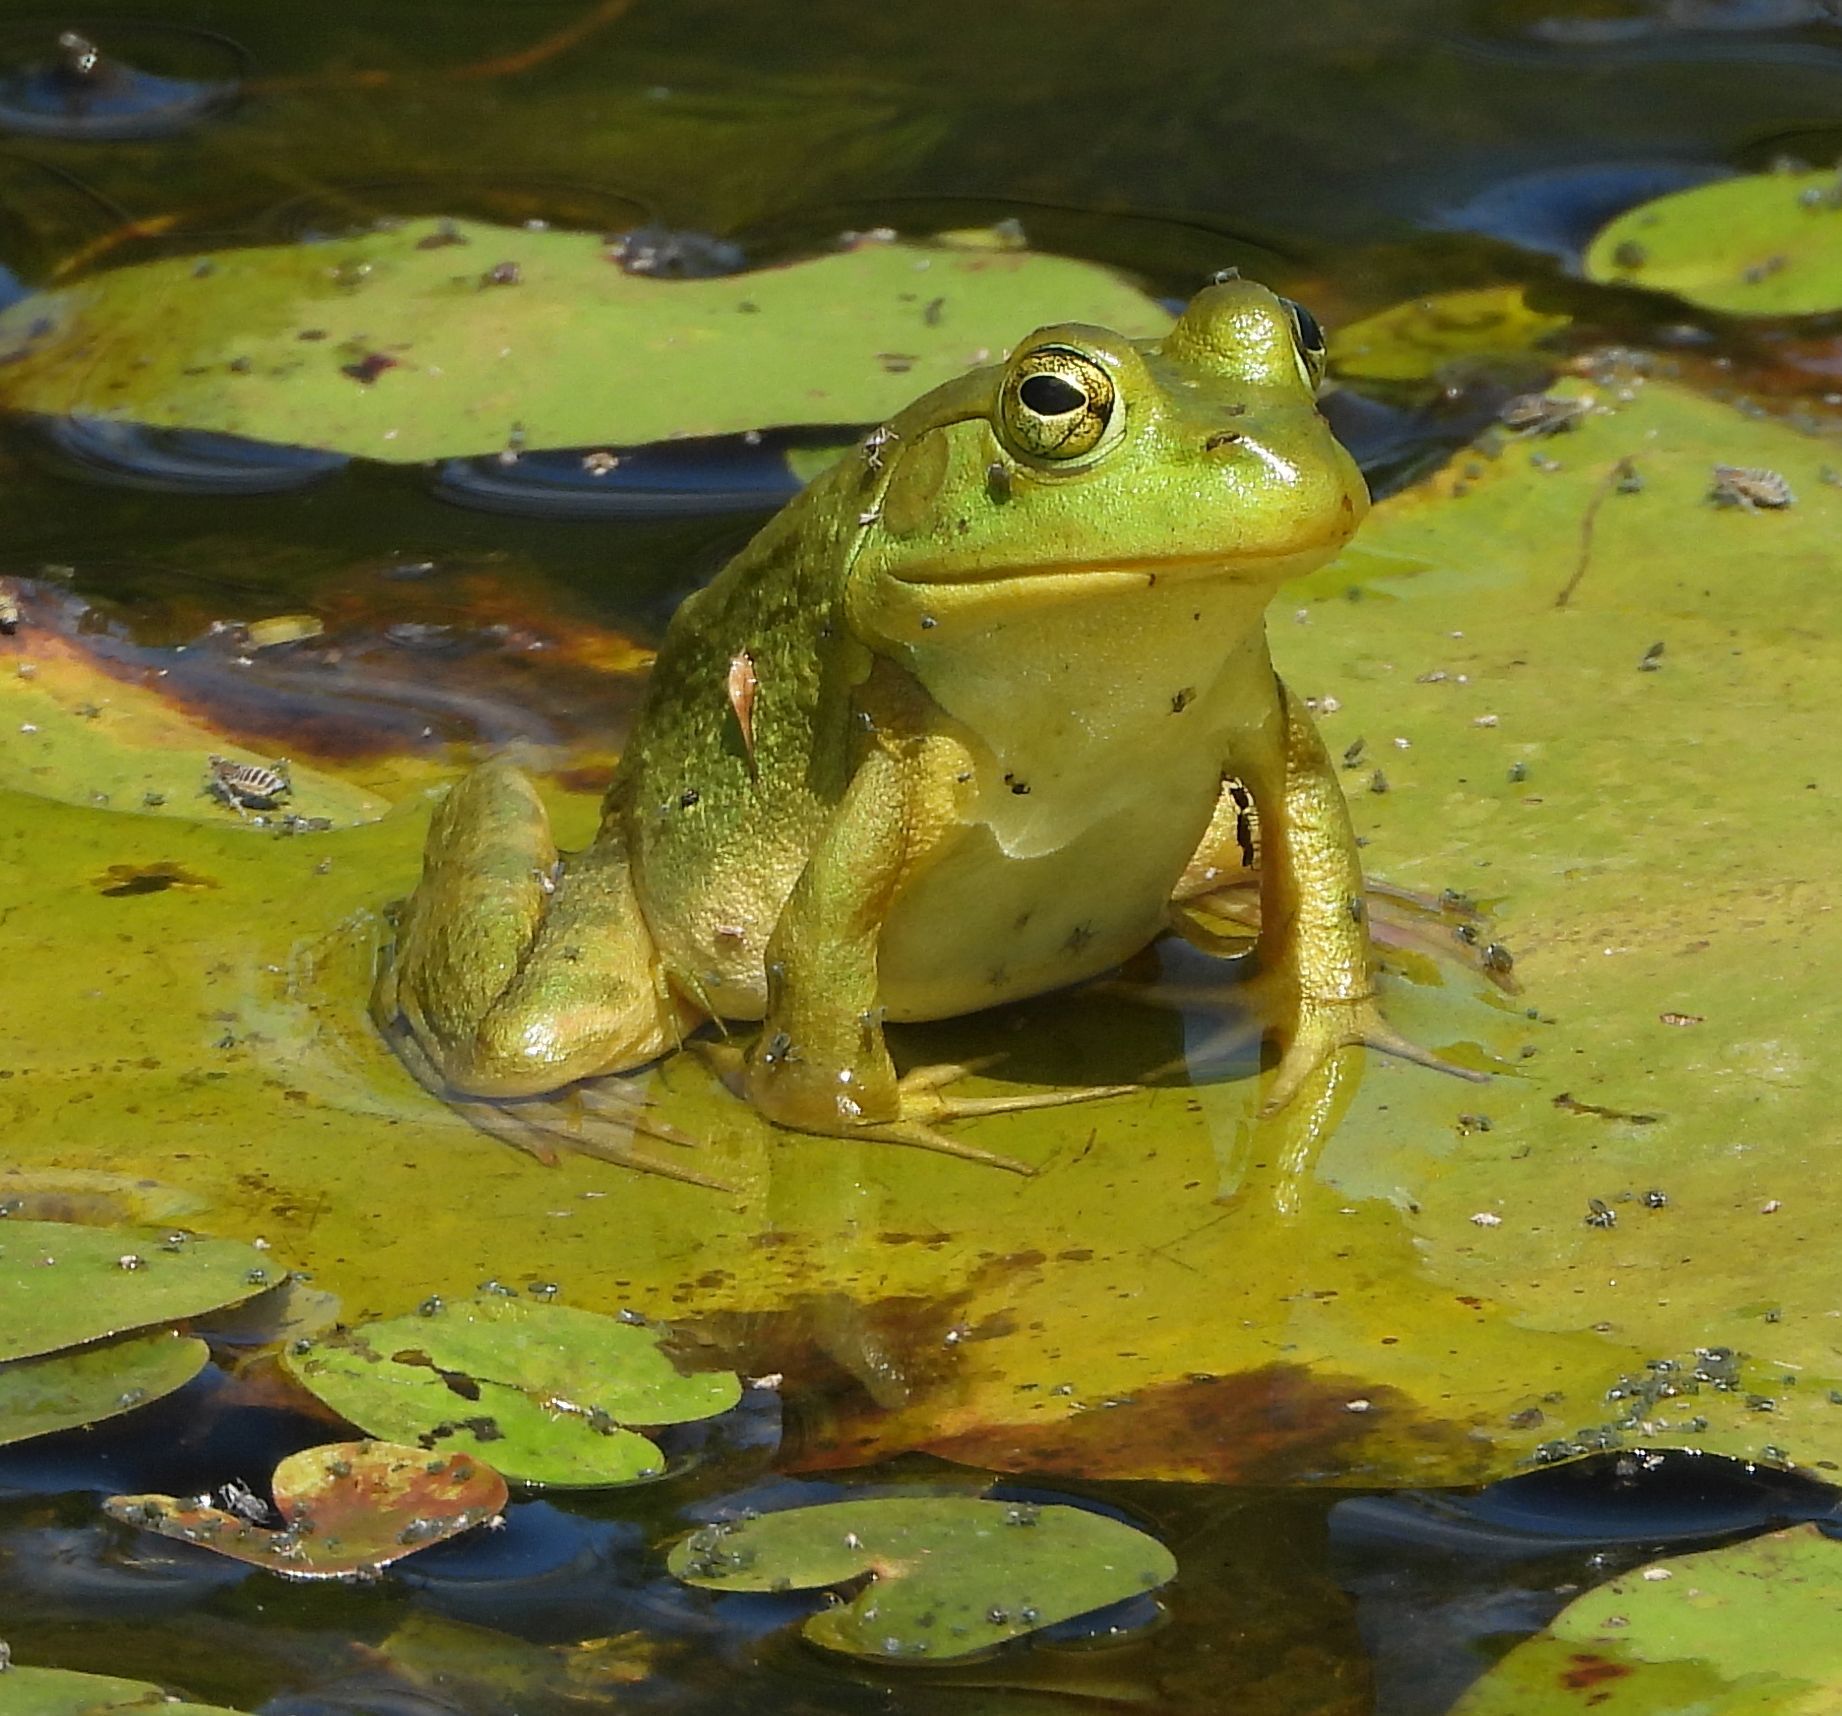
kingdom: Animalia
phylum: Chordata
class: Amphibia
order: Anura
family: Ranidae
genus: Lithobates
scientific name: Lithobates catesbeianus
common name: American bullfrog
